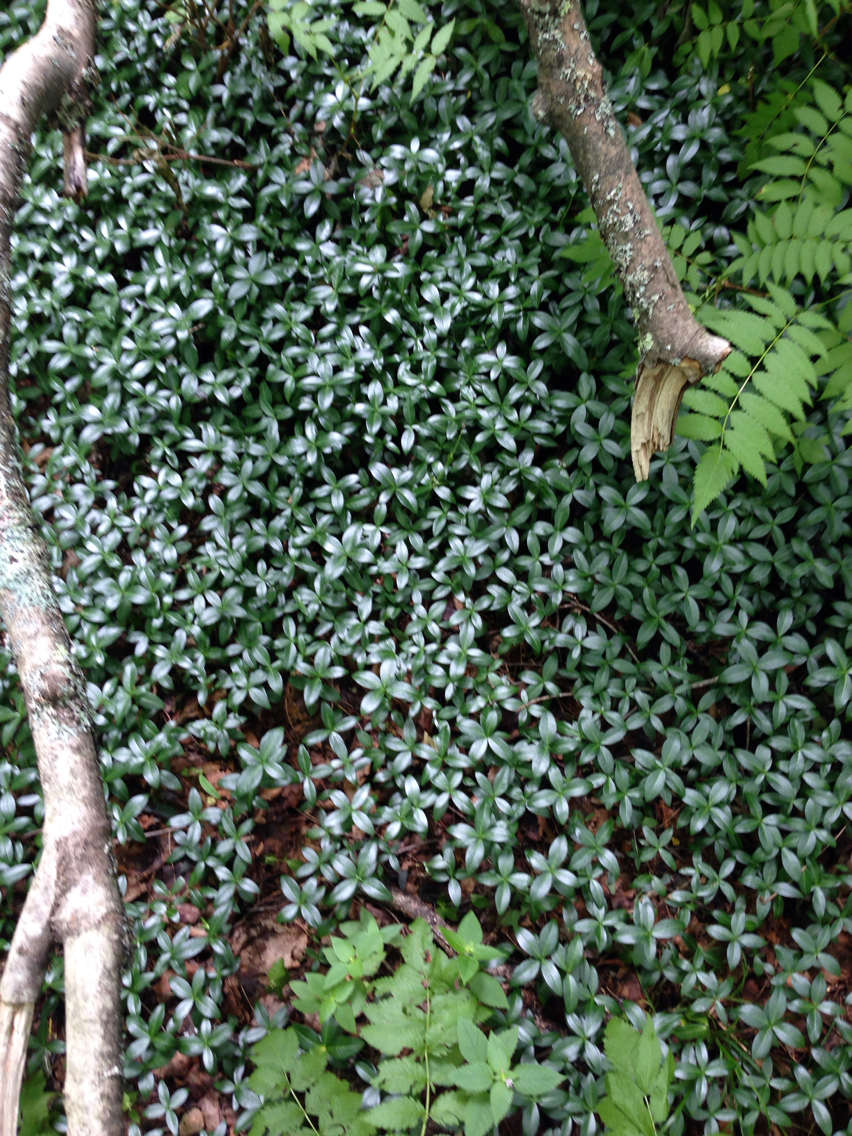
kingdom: Plantae
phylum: Tracheophyta
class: Magnoliopsida
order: Gentianales
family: Apocynaceae
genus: Vinca
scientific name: Vinca minor
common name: Lesser periwinkle
